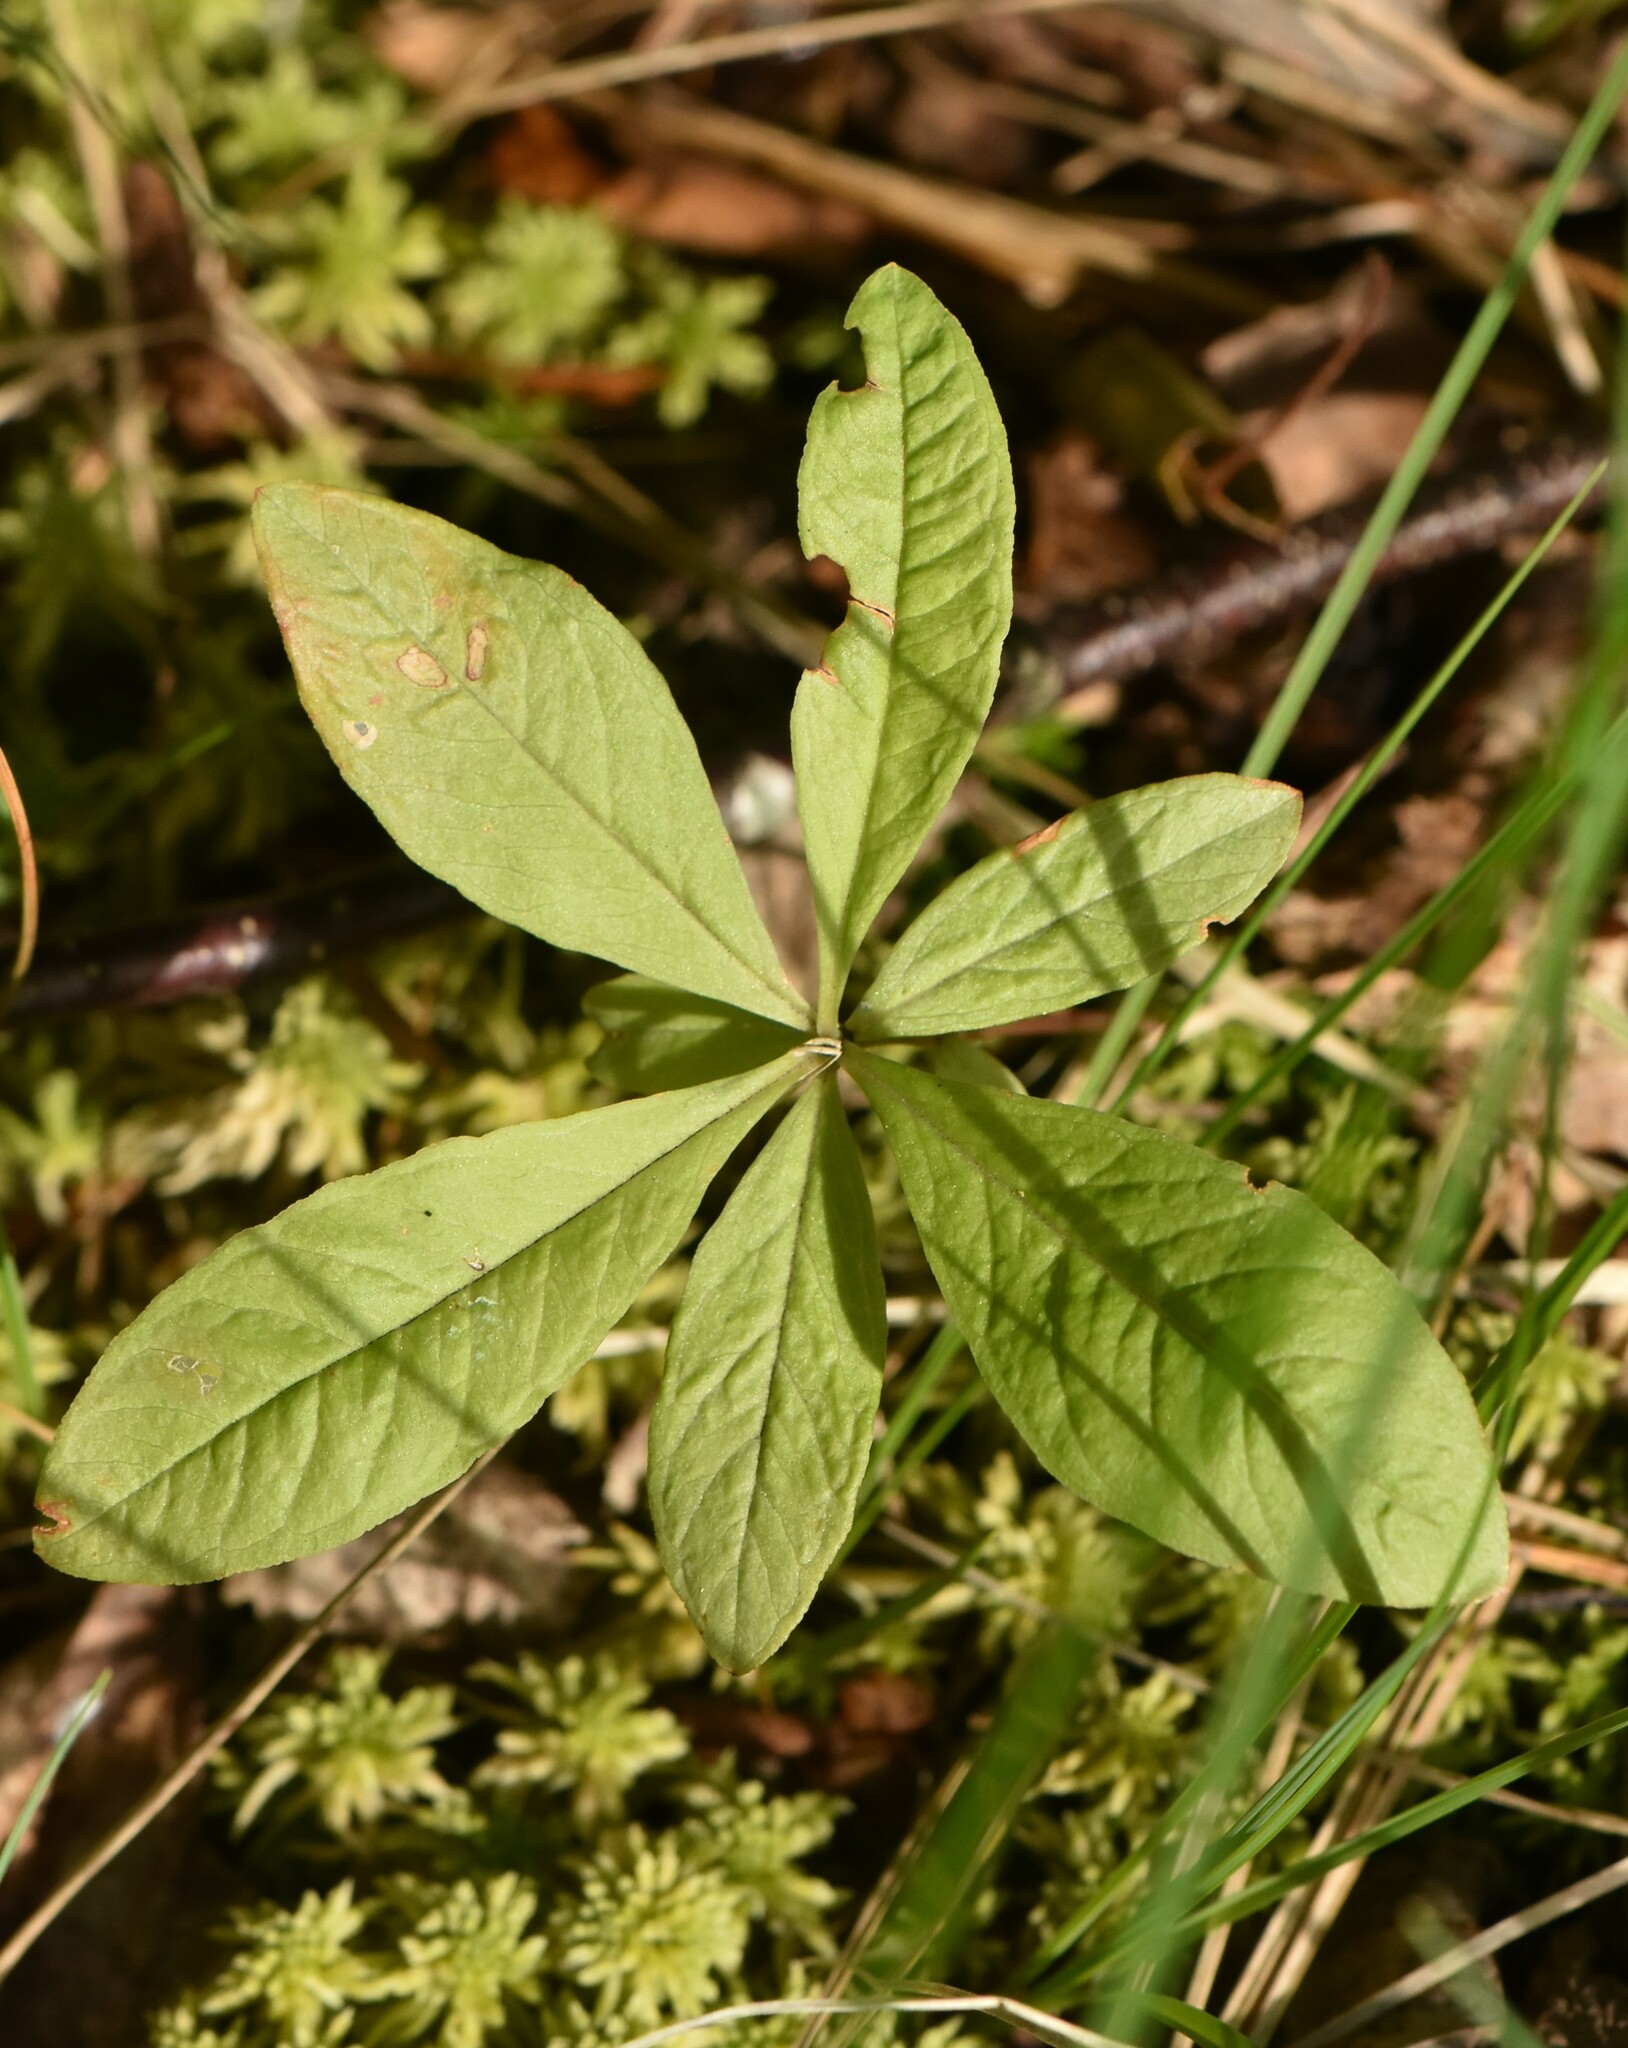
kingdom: Plantae
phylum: Tracheophyta
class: Magnoliopsida
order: Ericales
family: Primulaceae
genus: Lysimachia
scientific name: Lysimachia europaea
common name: Arctic starflower
